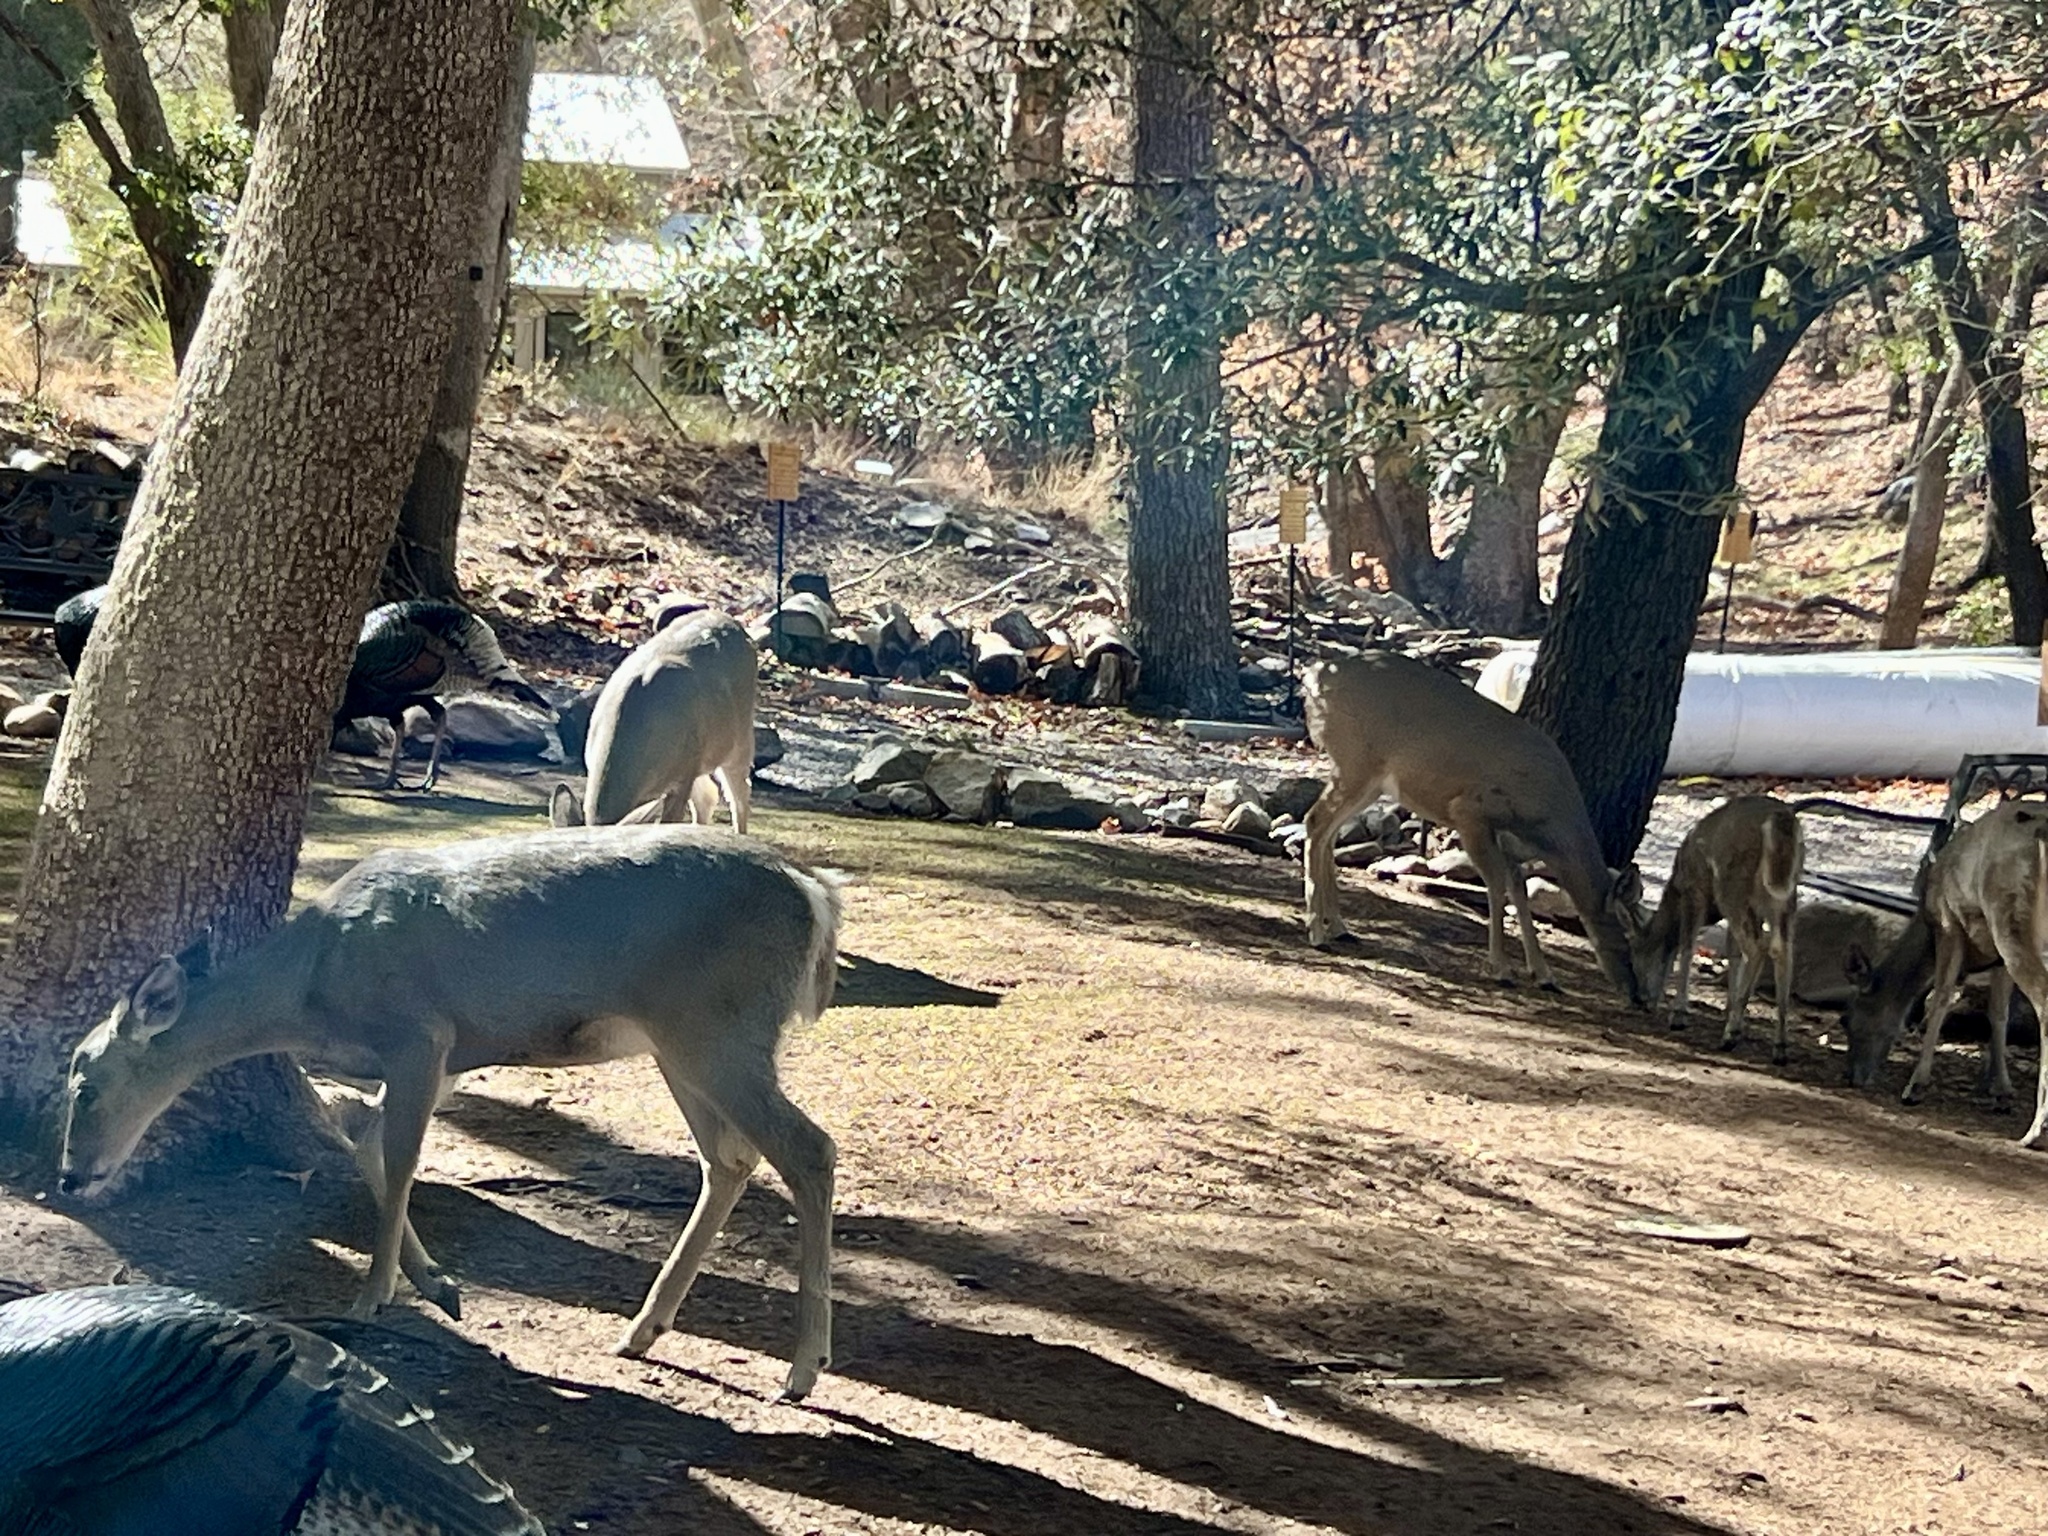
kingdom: Animalia
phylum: Chordata
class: Mammalia
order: Artiodactyla
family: Cervidae
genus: Odocoileus
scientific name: Odocoileus virginianus
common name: White-tailed deer
